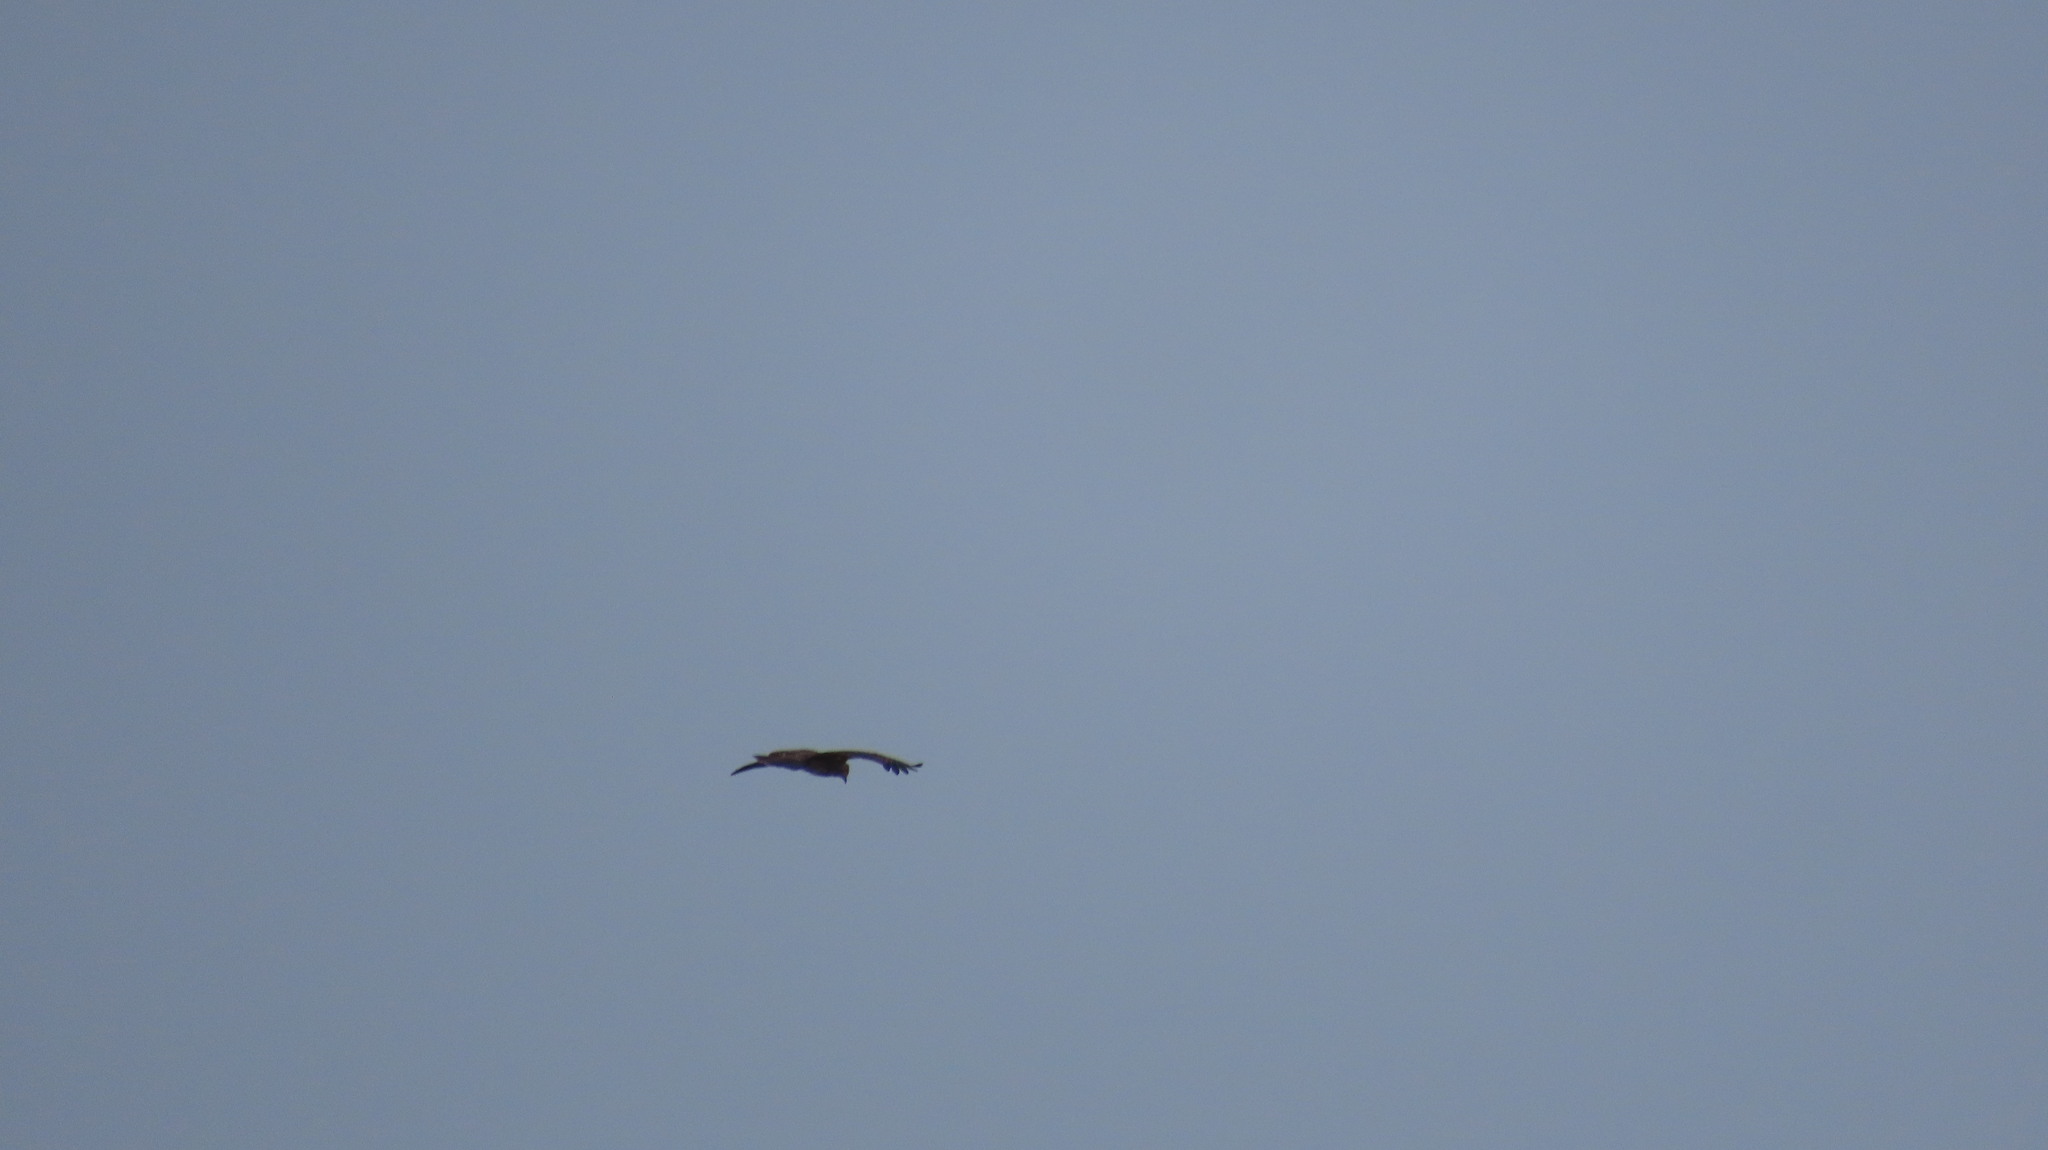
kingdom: Animalia
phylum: Chordata
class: Aves
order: Accipitriformes
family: Accipitridae
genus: Haliastur
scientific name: Haliastur indus
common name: Brahminy kite
